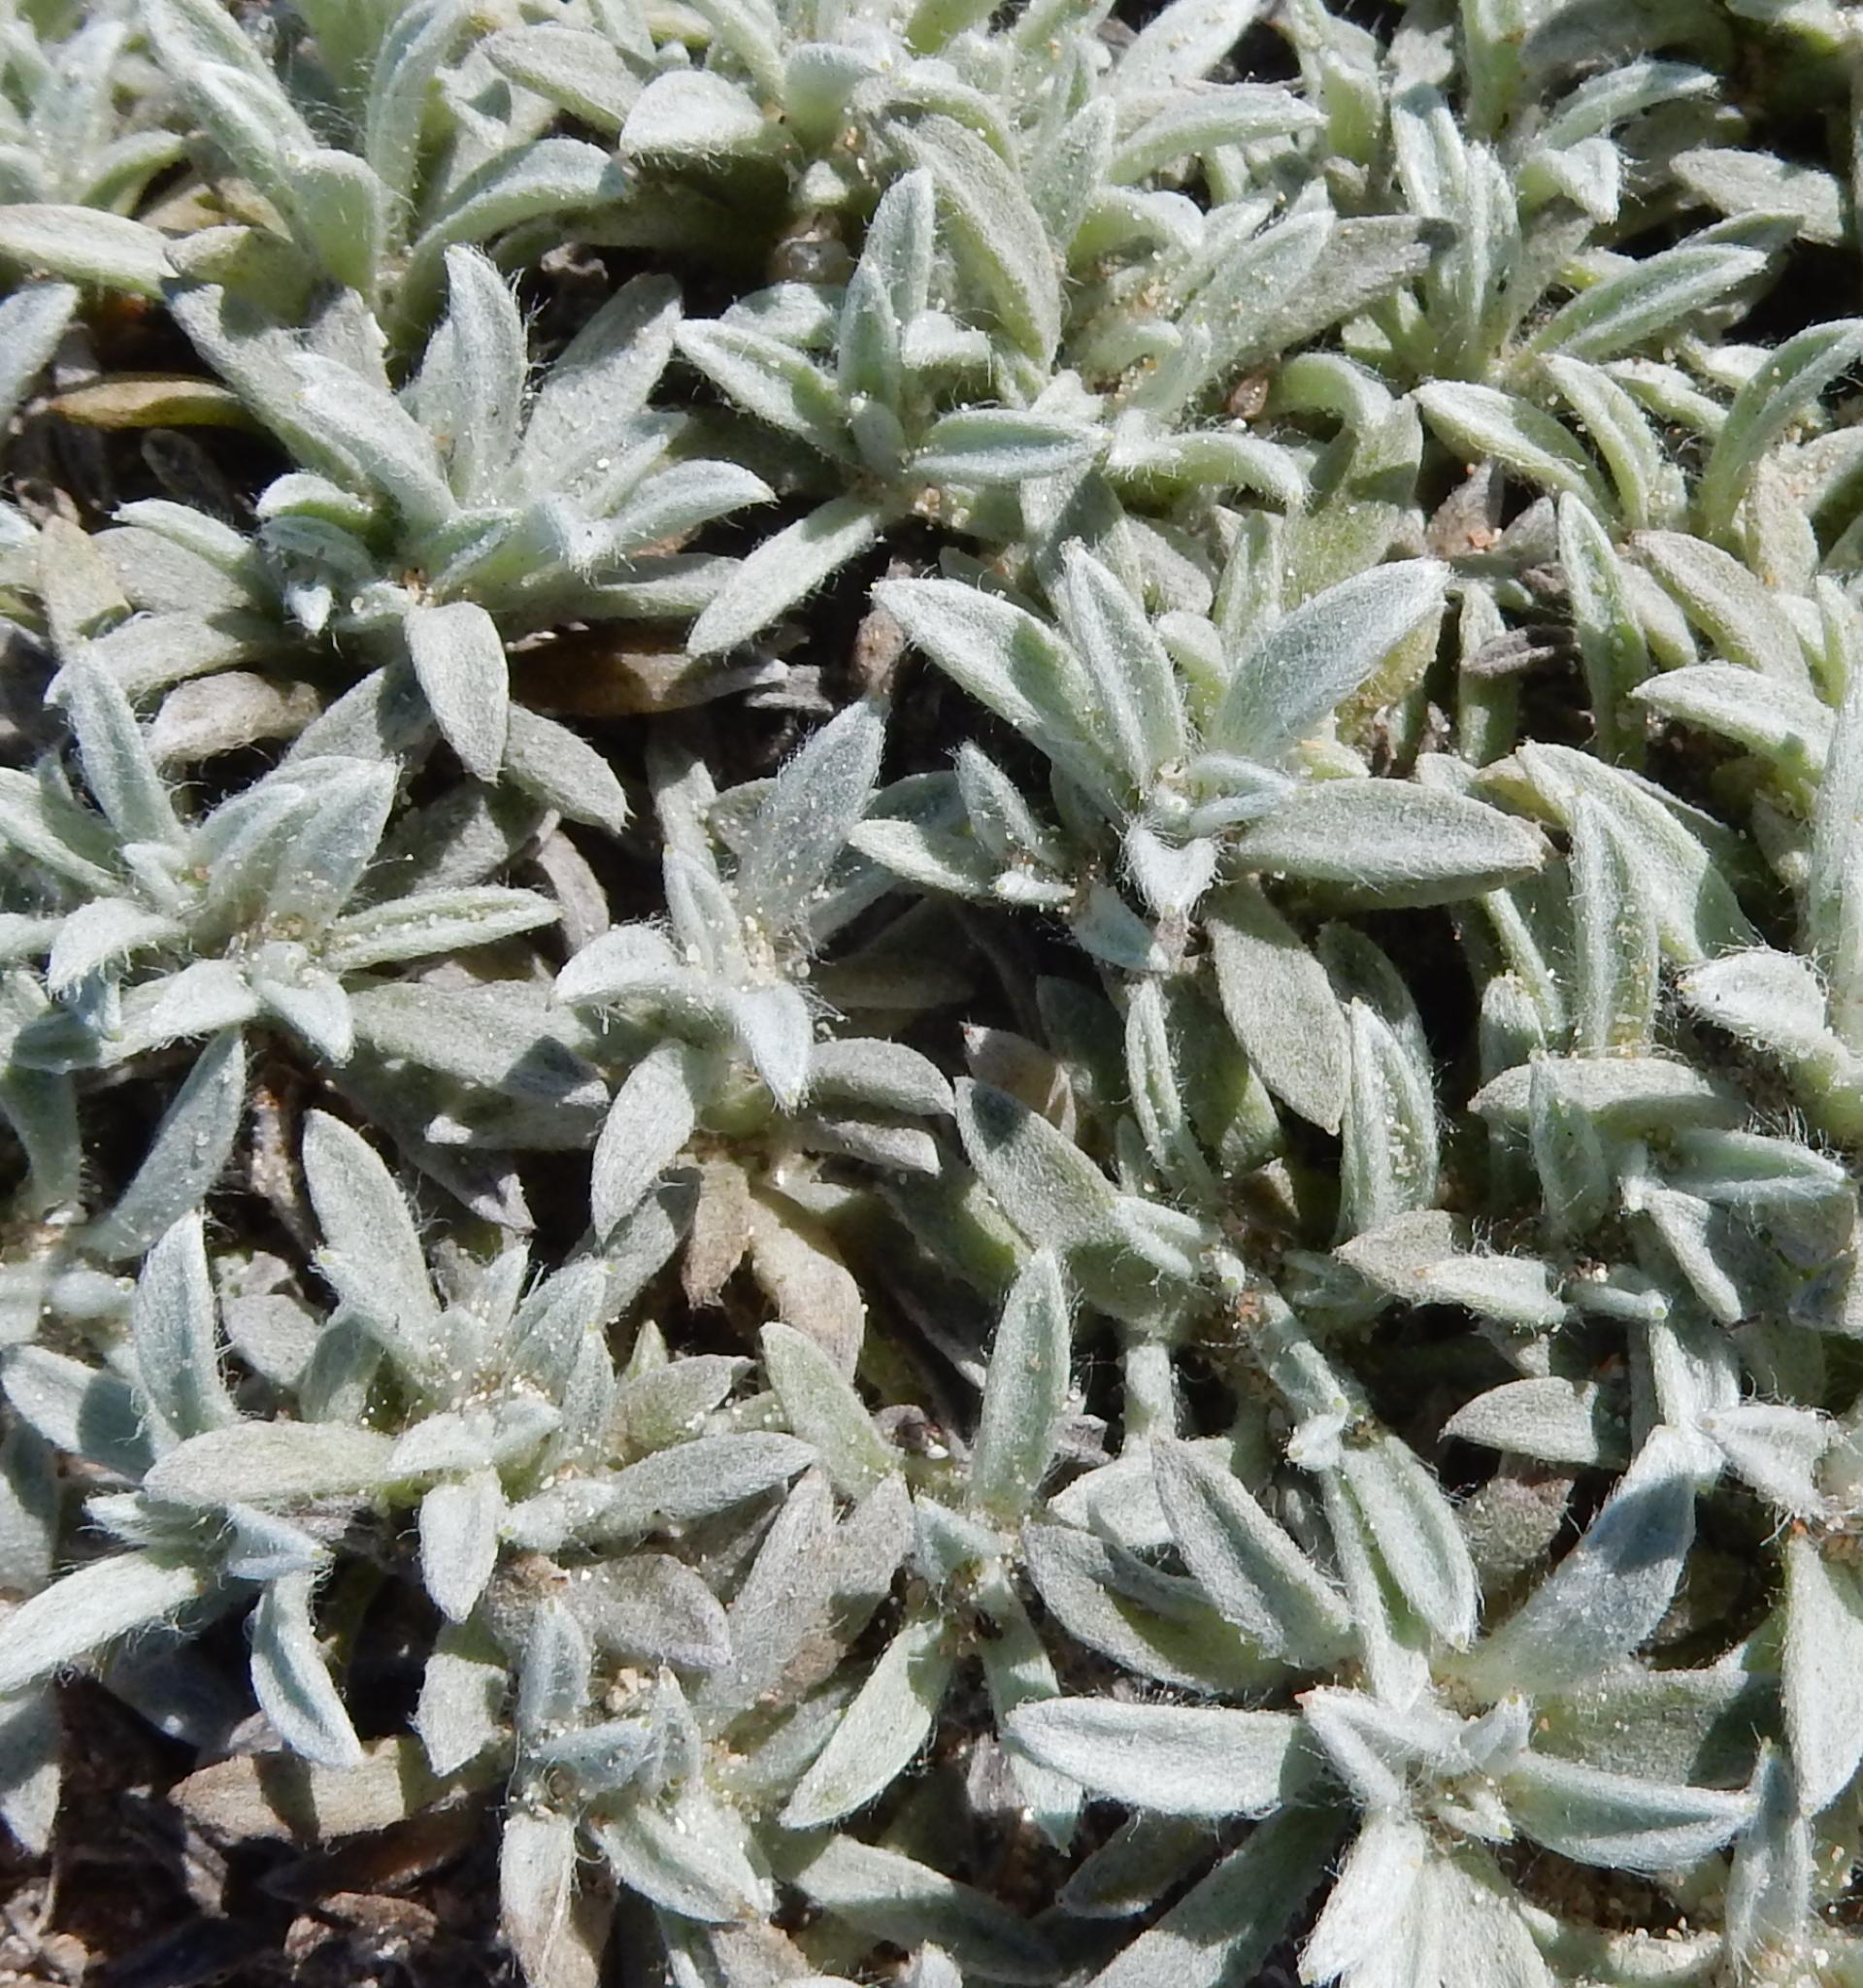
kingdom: Plantae
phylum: Tracheophyta
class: Magnoliopsida
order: Asterales
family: Asteraceae
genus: Achyranthemum
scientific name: Achyranthemum sordescens
